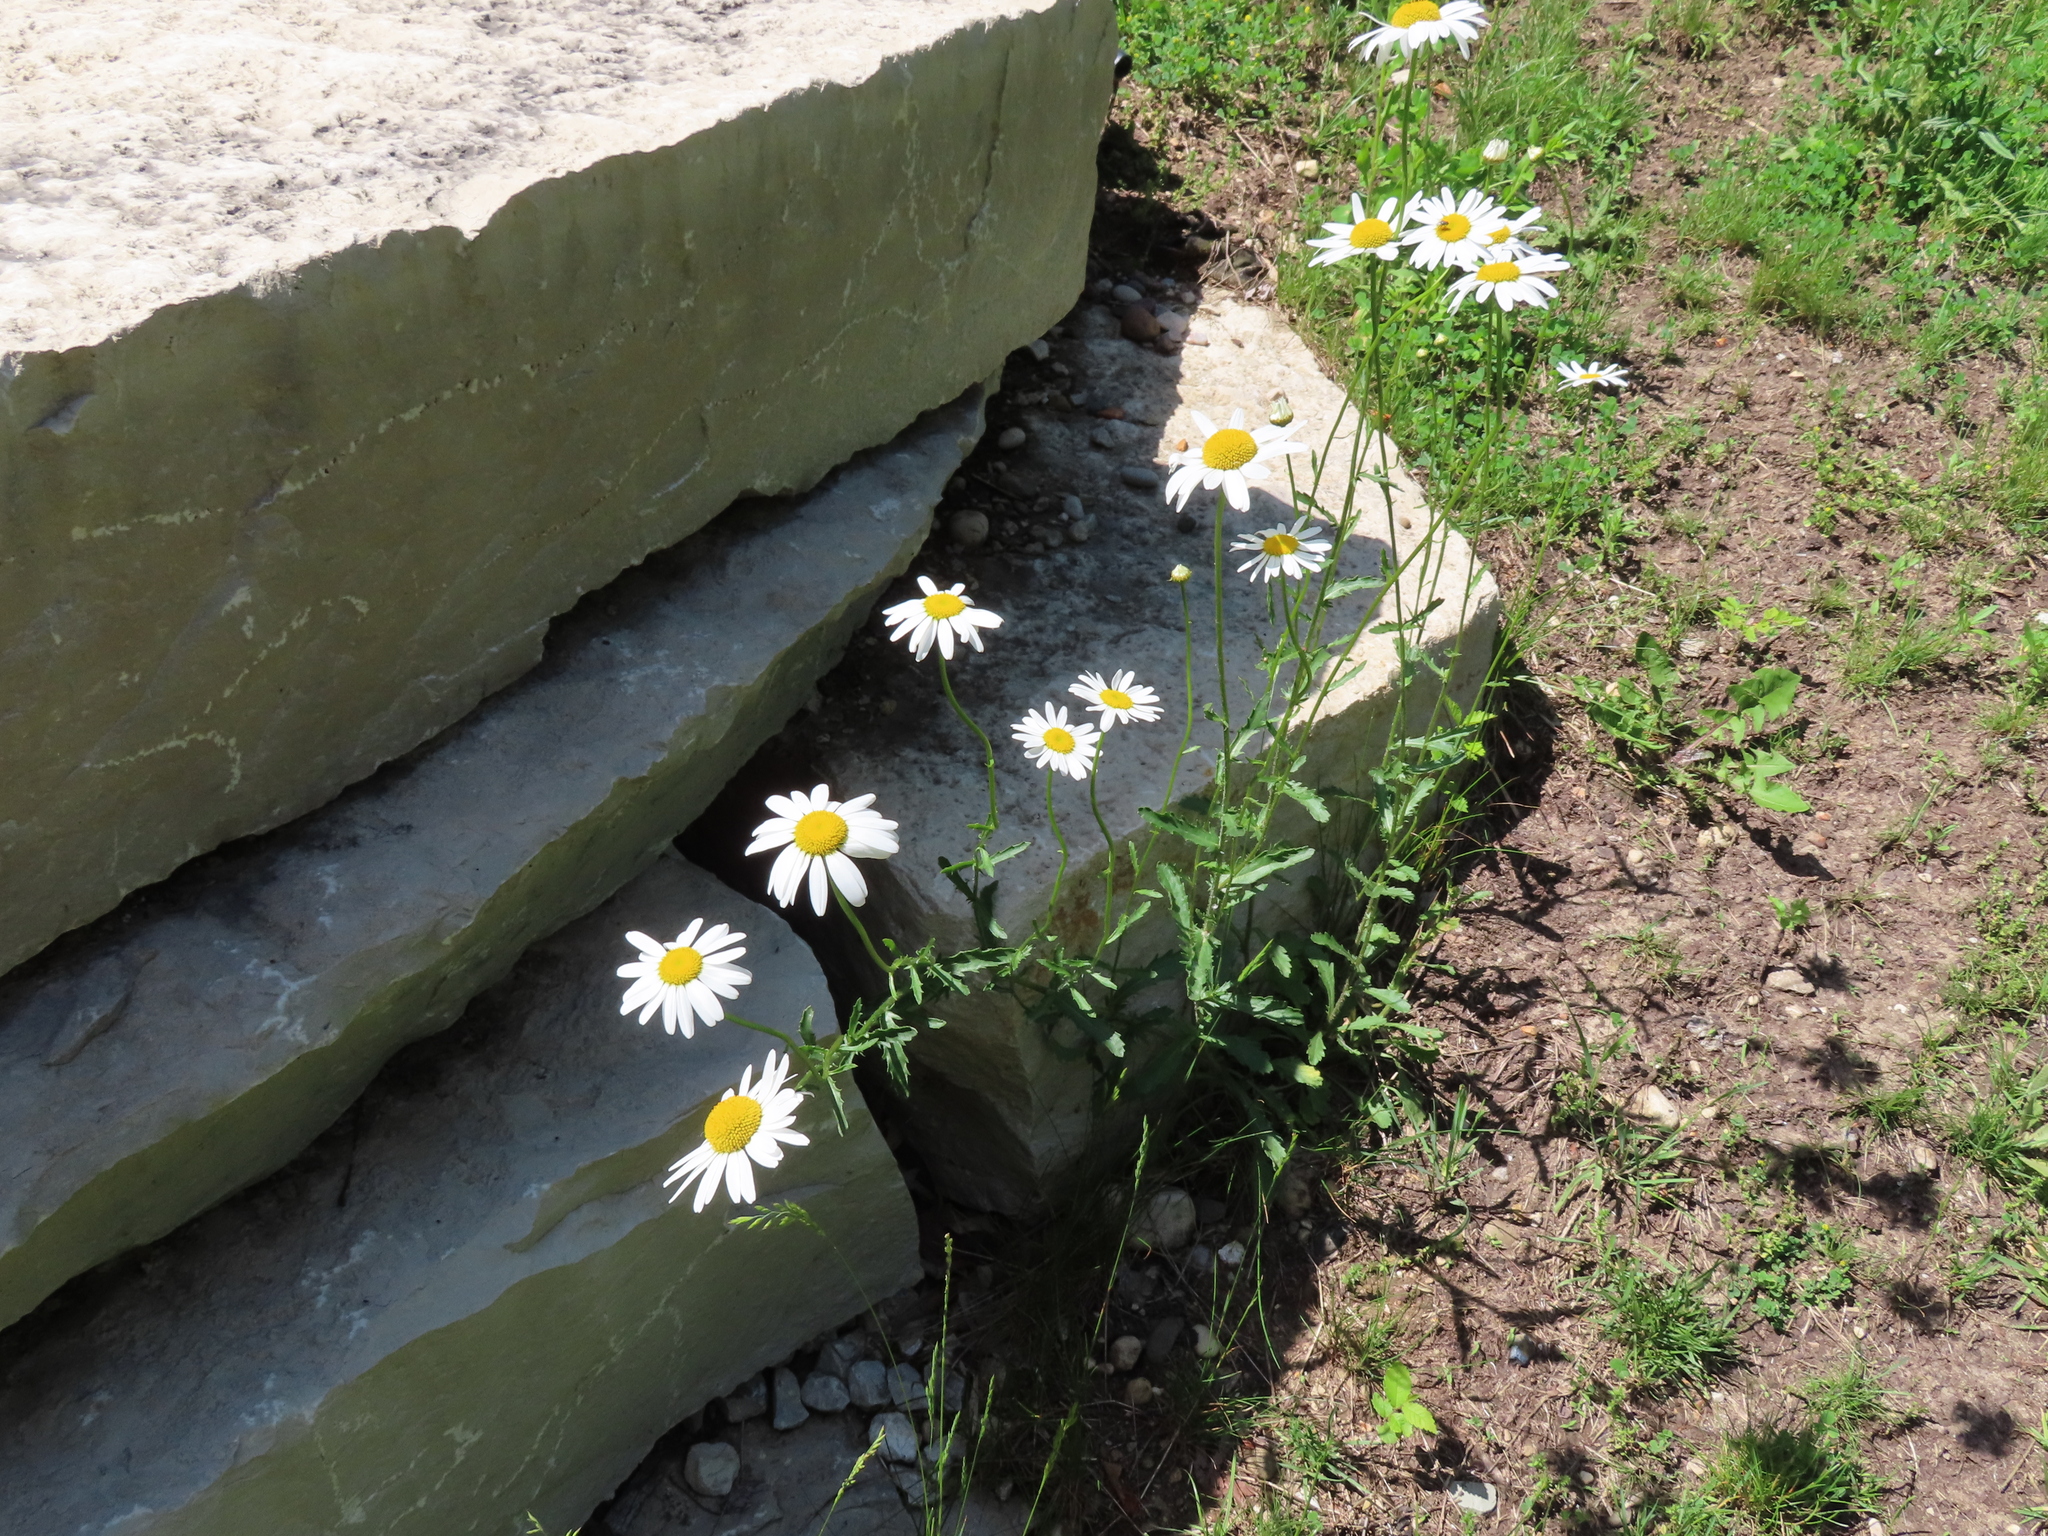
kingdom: Plantae
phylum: Tracheophyta
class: Magnoliopsida
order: Asterales
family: Asteraceae
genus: Leucanthemum
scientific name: Leucanthemum vulgare
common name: Oxeye daisy
